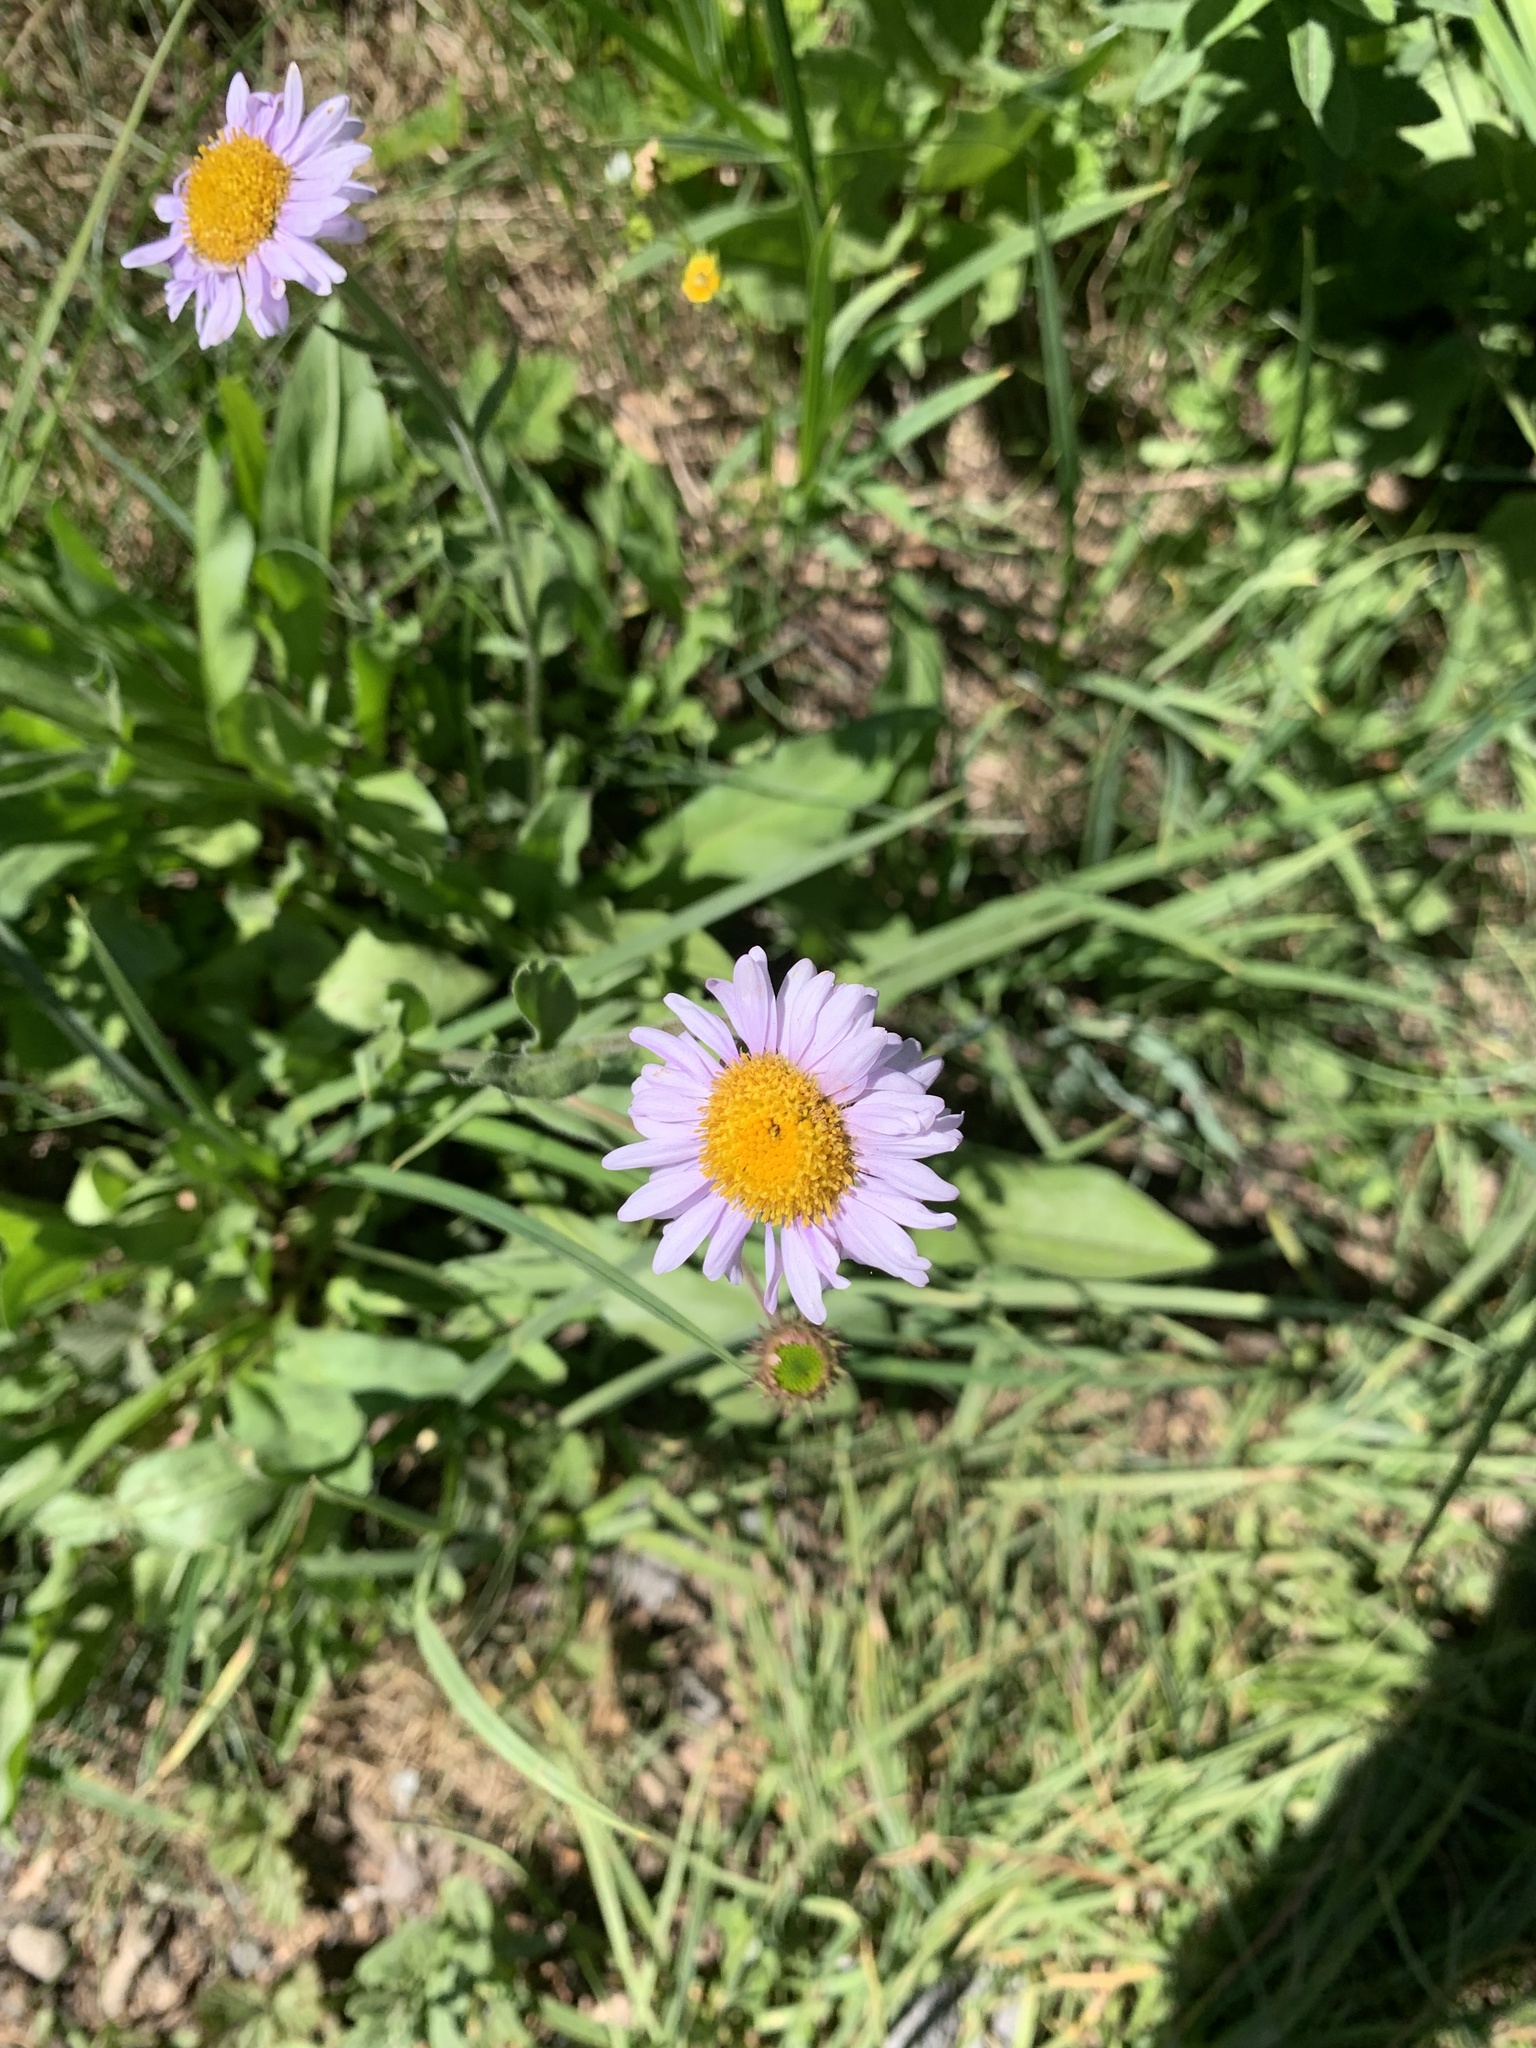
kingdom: Plantae
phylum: Tracheophyta
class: Magnoliopsida
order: Asterales
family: Asteraceae
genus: Erigeron
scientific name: Erigeron glacialis
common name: Subalpine fleabane
